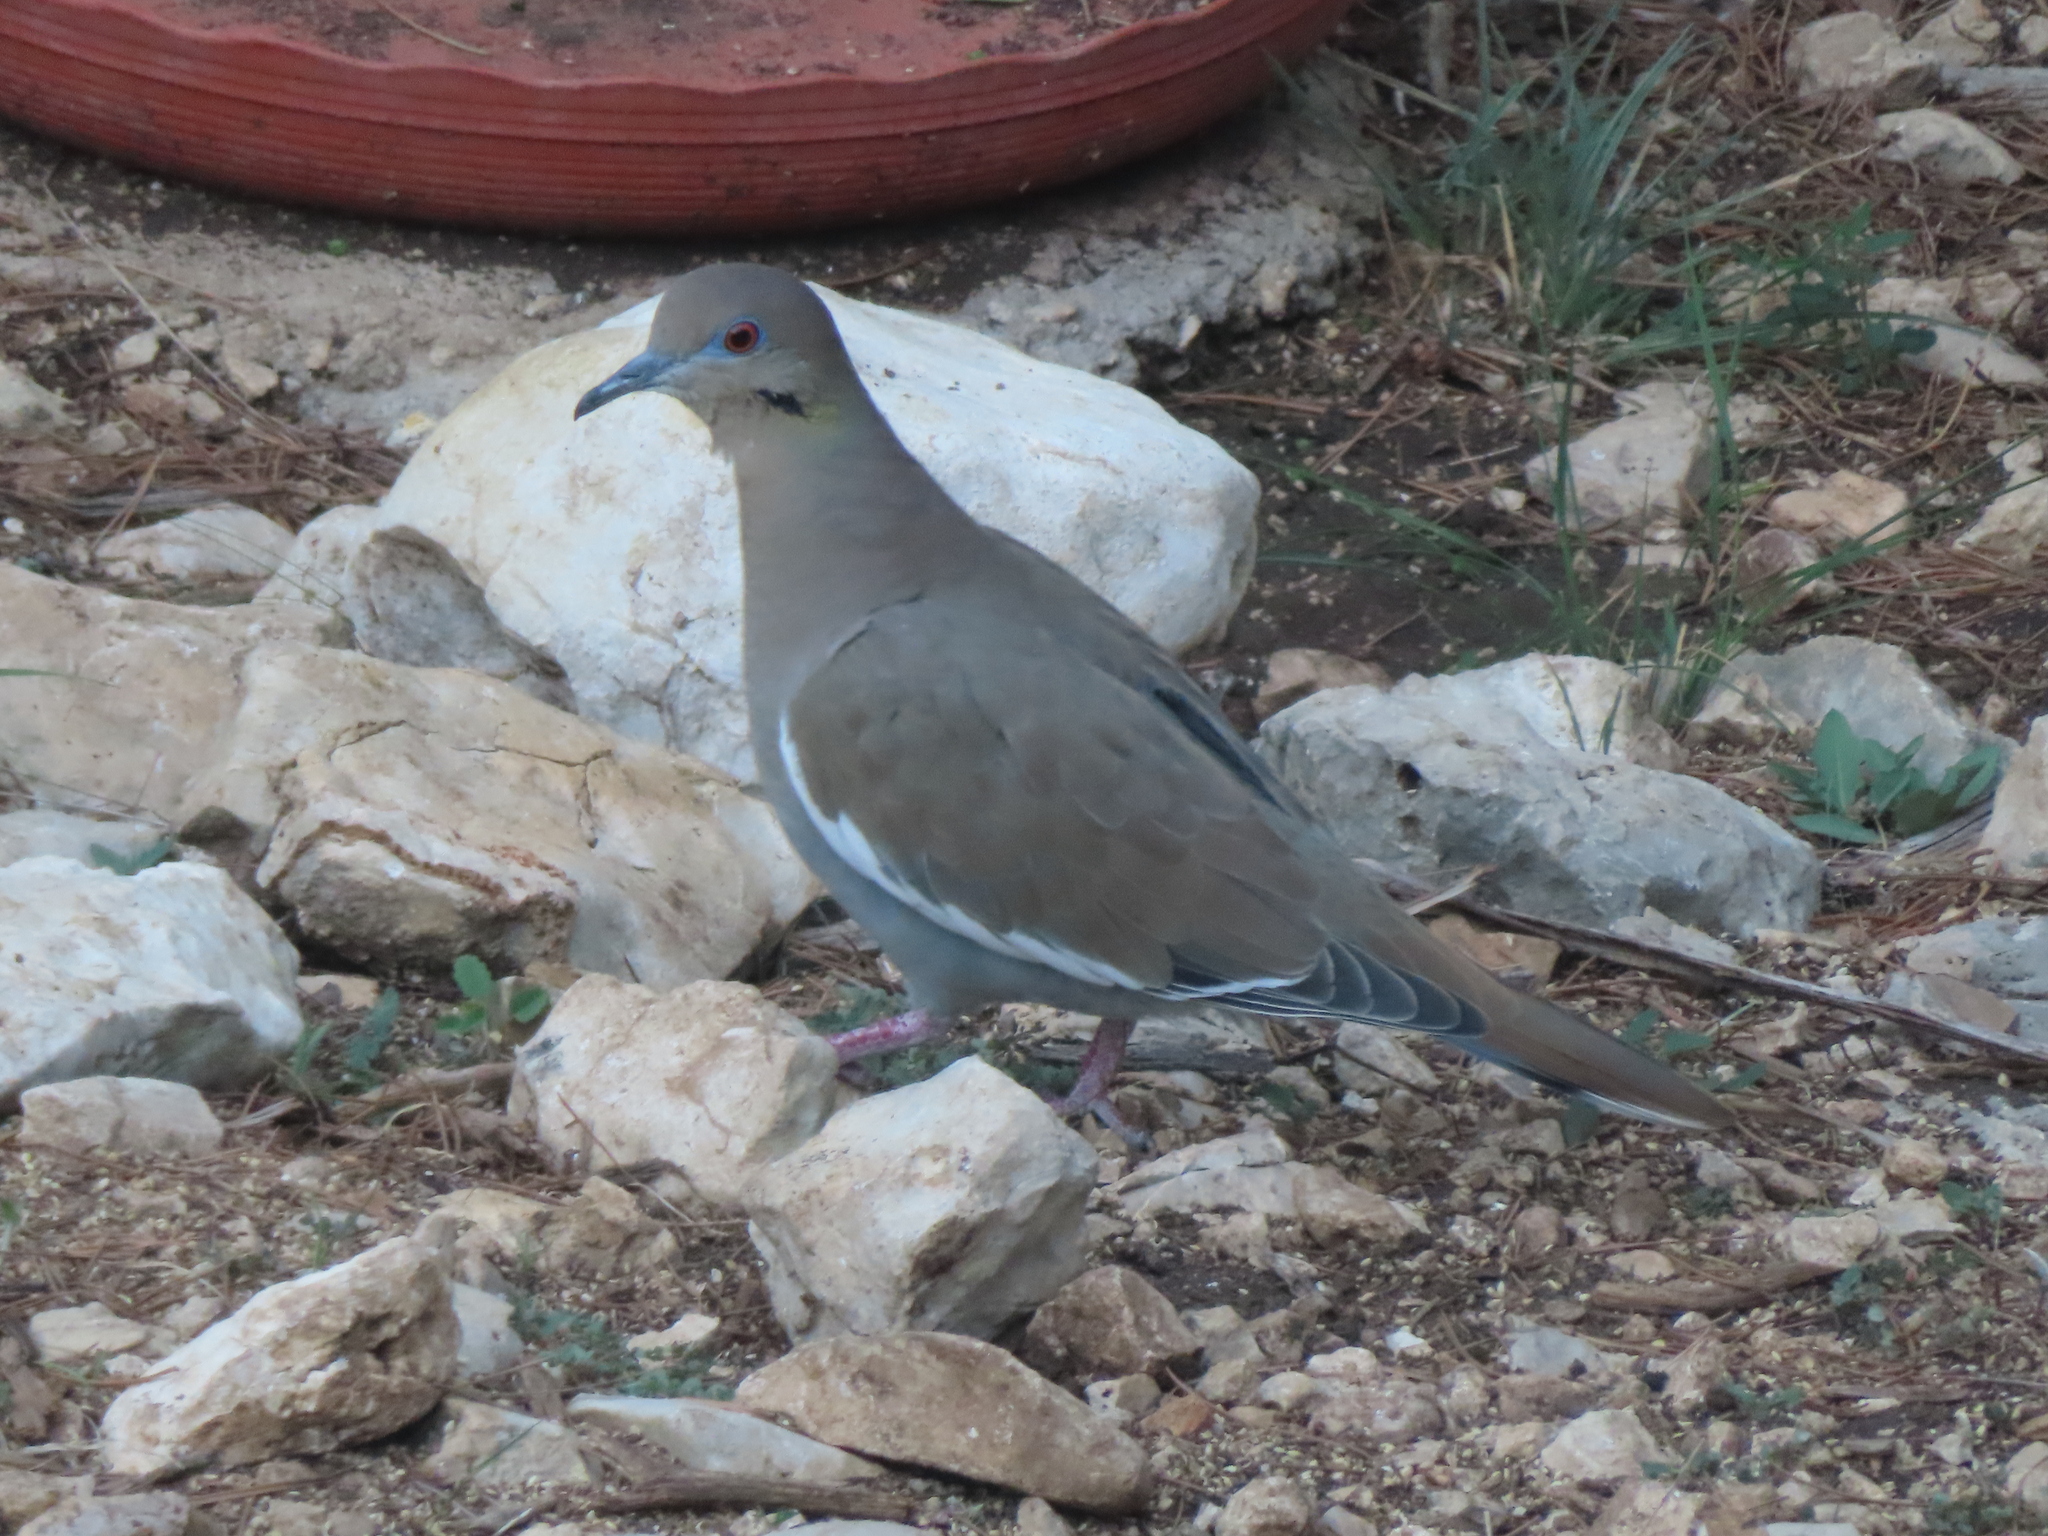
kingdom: Animalia
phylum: Chordata
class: Aves
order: Columbiformes
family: Columbidae
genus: Zenaida
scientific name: Zenaida asiatica
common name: White-winged dove
